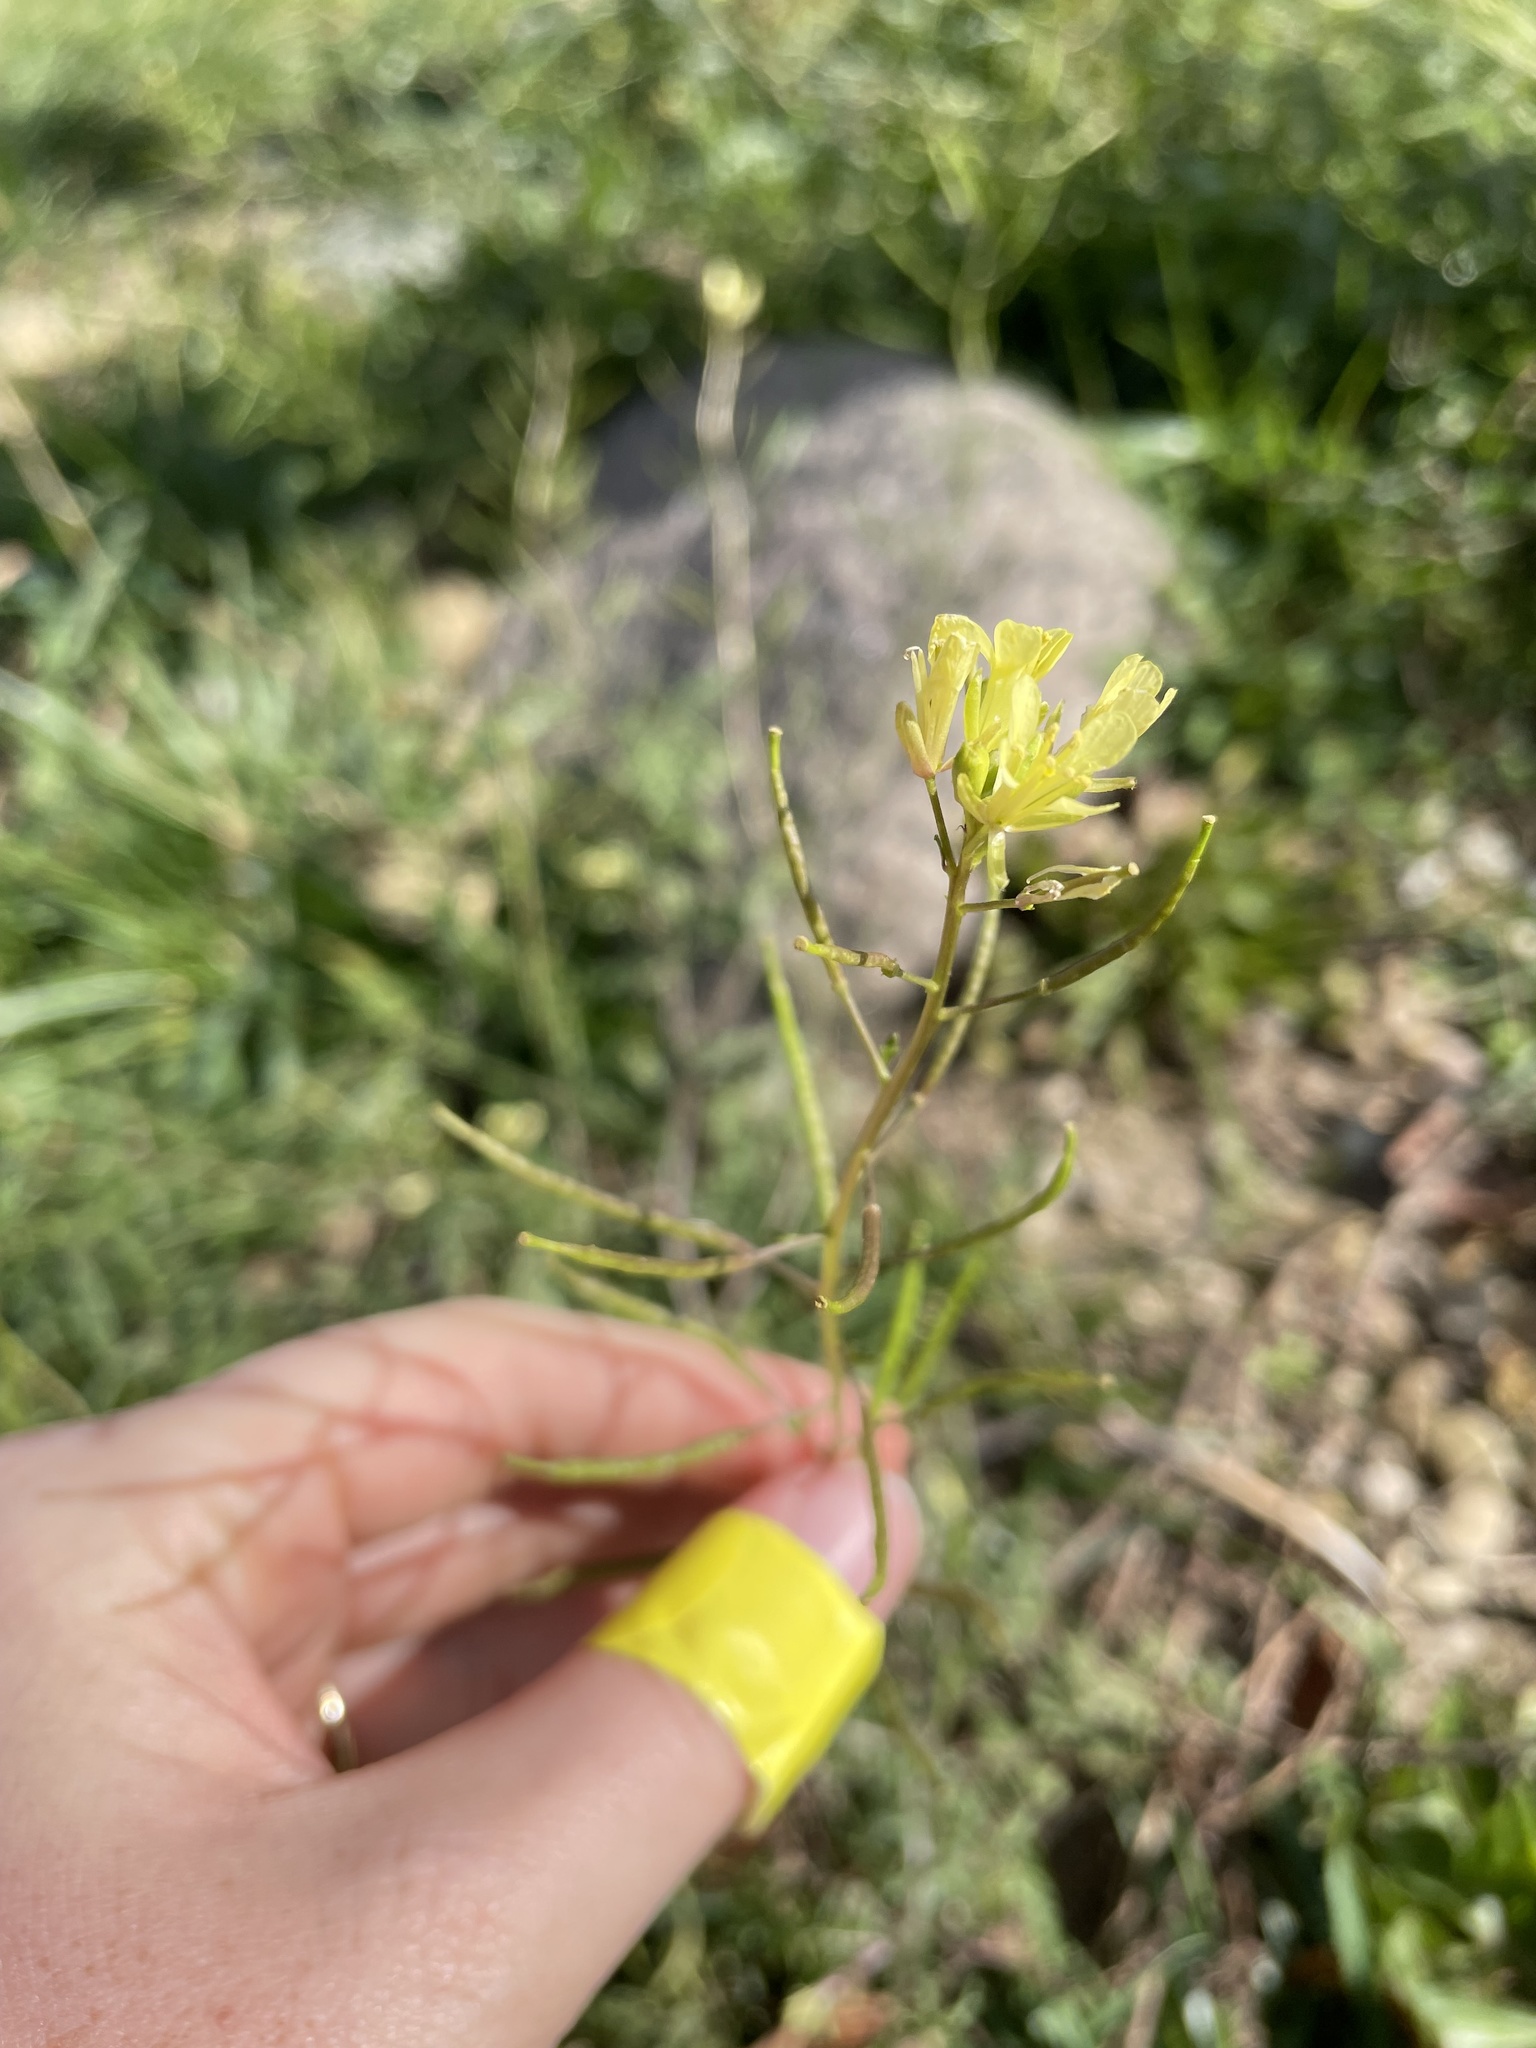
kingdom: Plantae
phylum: Tracheophyta
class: Magnoliopsida
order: Brassicales
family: Brassicaceae
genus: Erucastrum
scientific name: Erucastrum gallicum
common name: Hairy rocket
